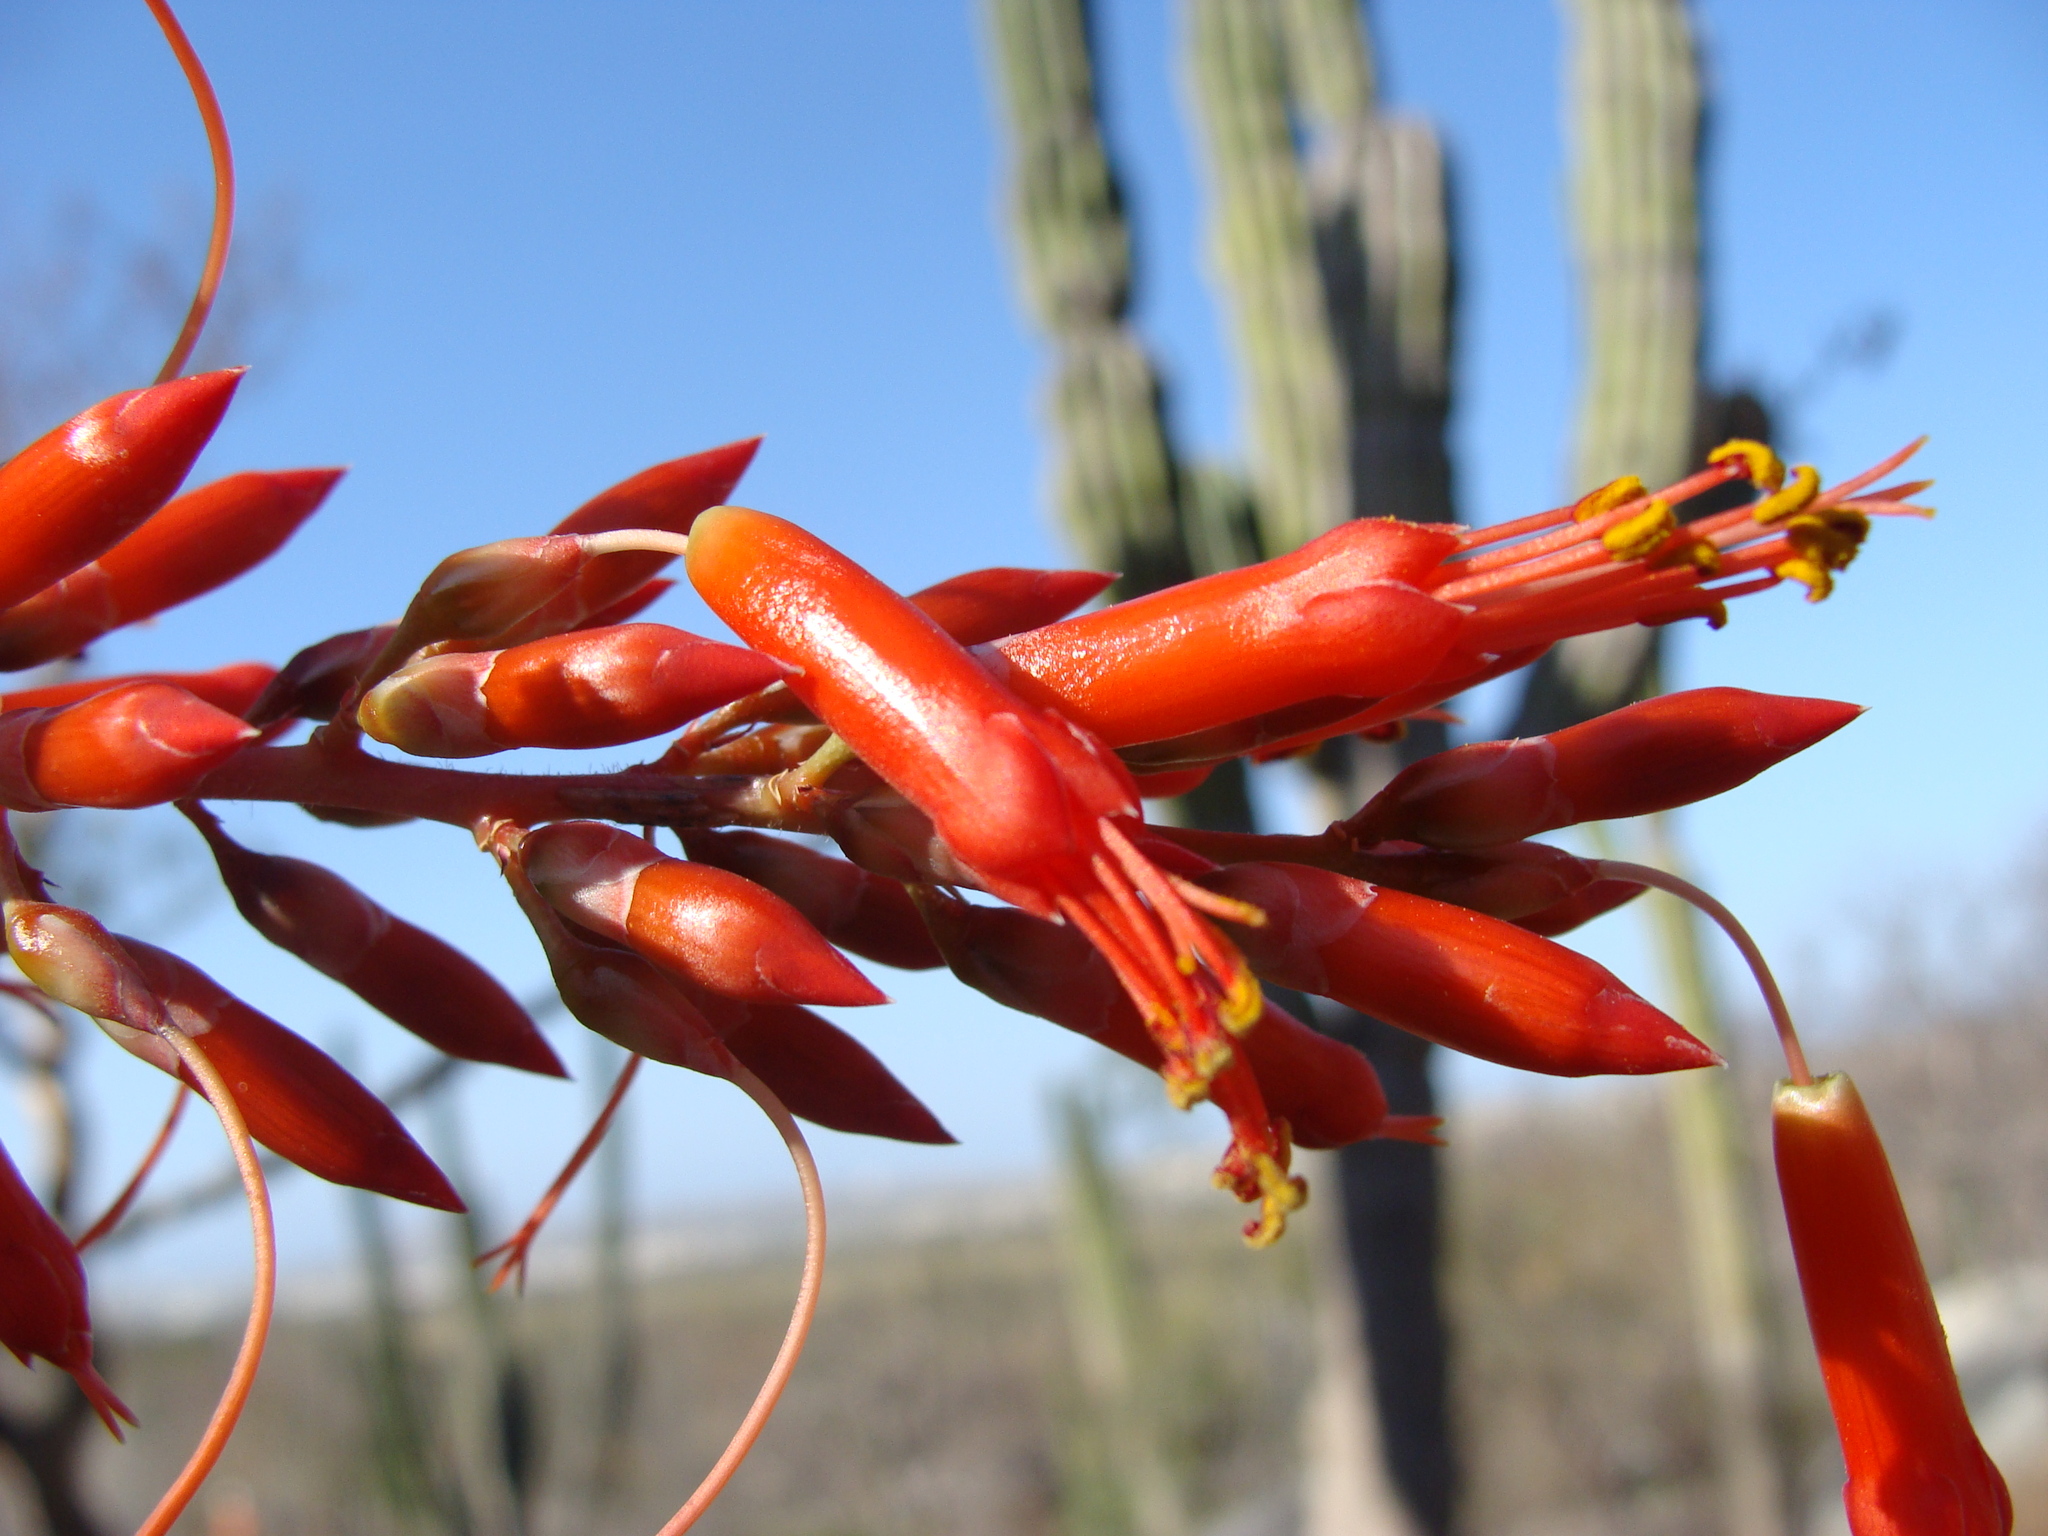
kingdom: Plantae
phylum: Tracheophyta
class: Magnoliopsida
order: Ericales
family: Fouquieriaceae
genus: Fouquieria
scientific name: Fouquieria diguetii
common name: Adam's tree
